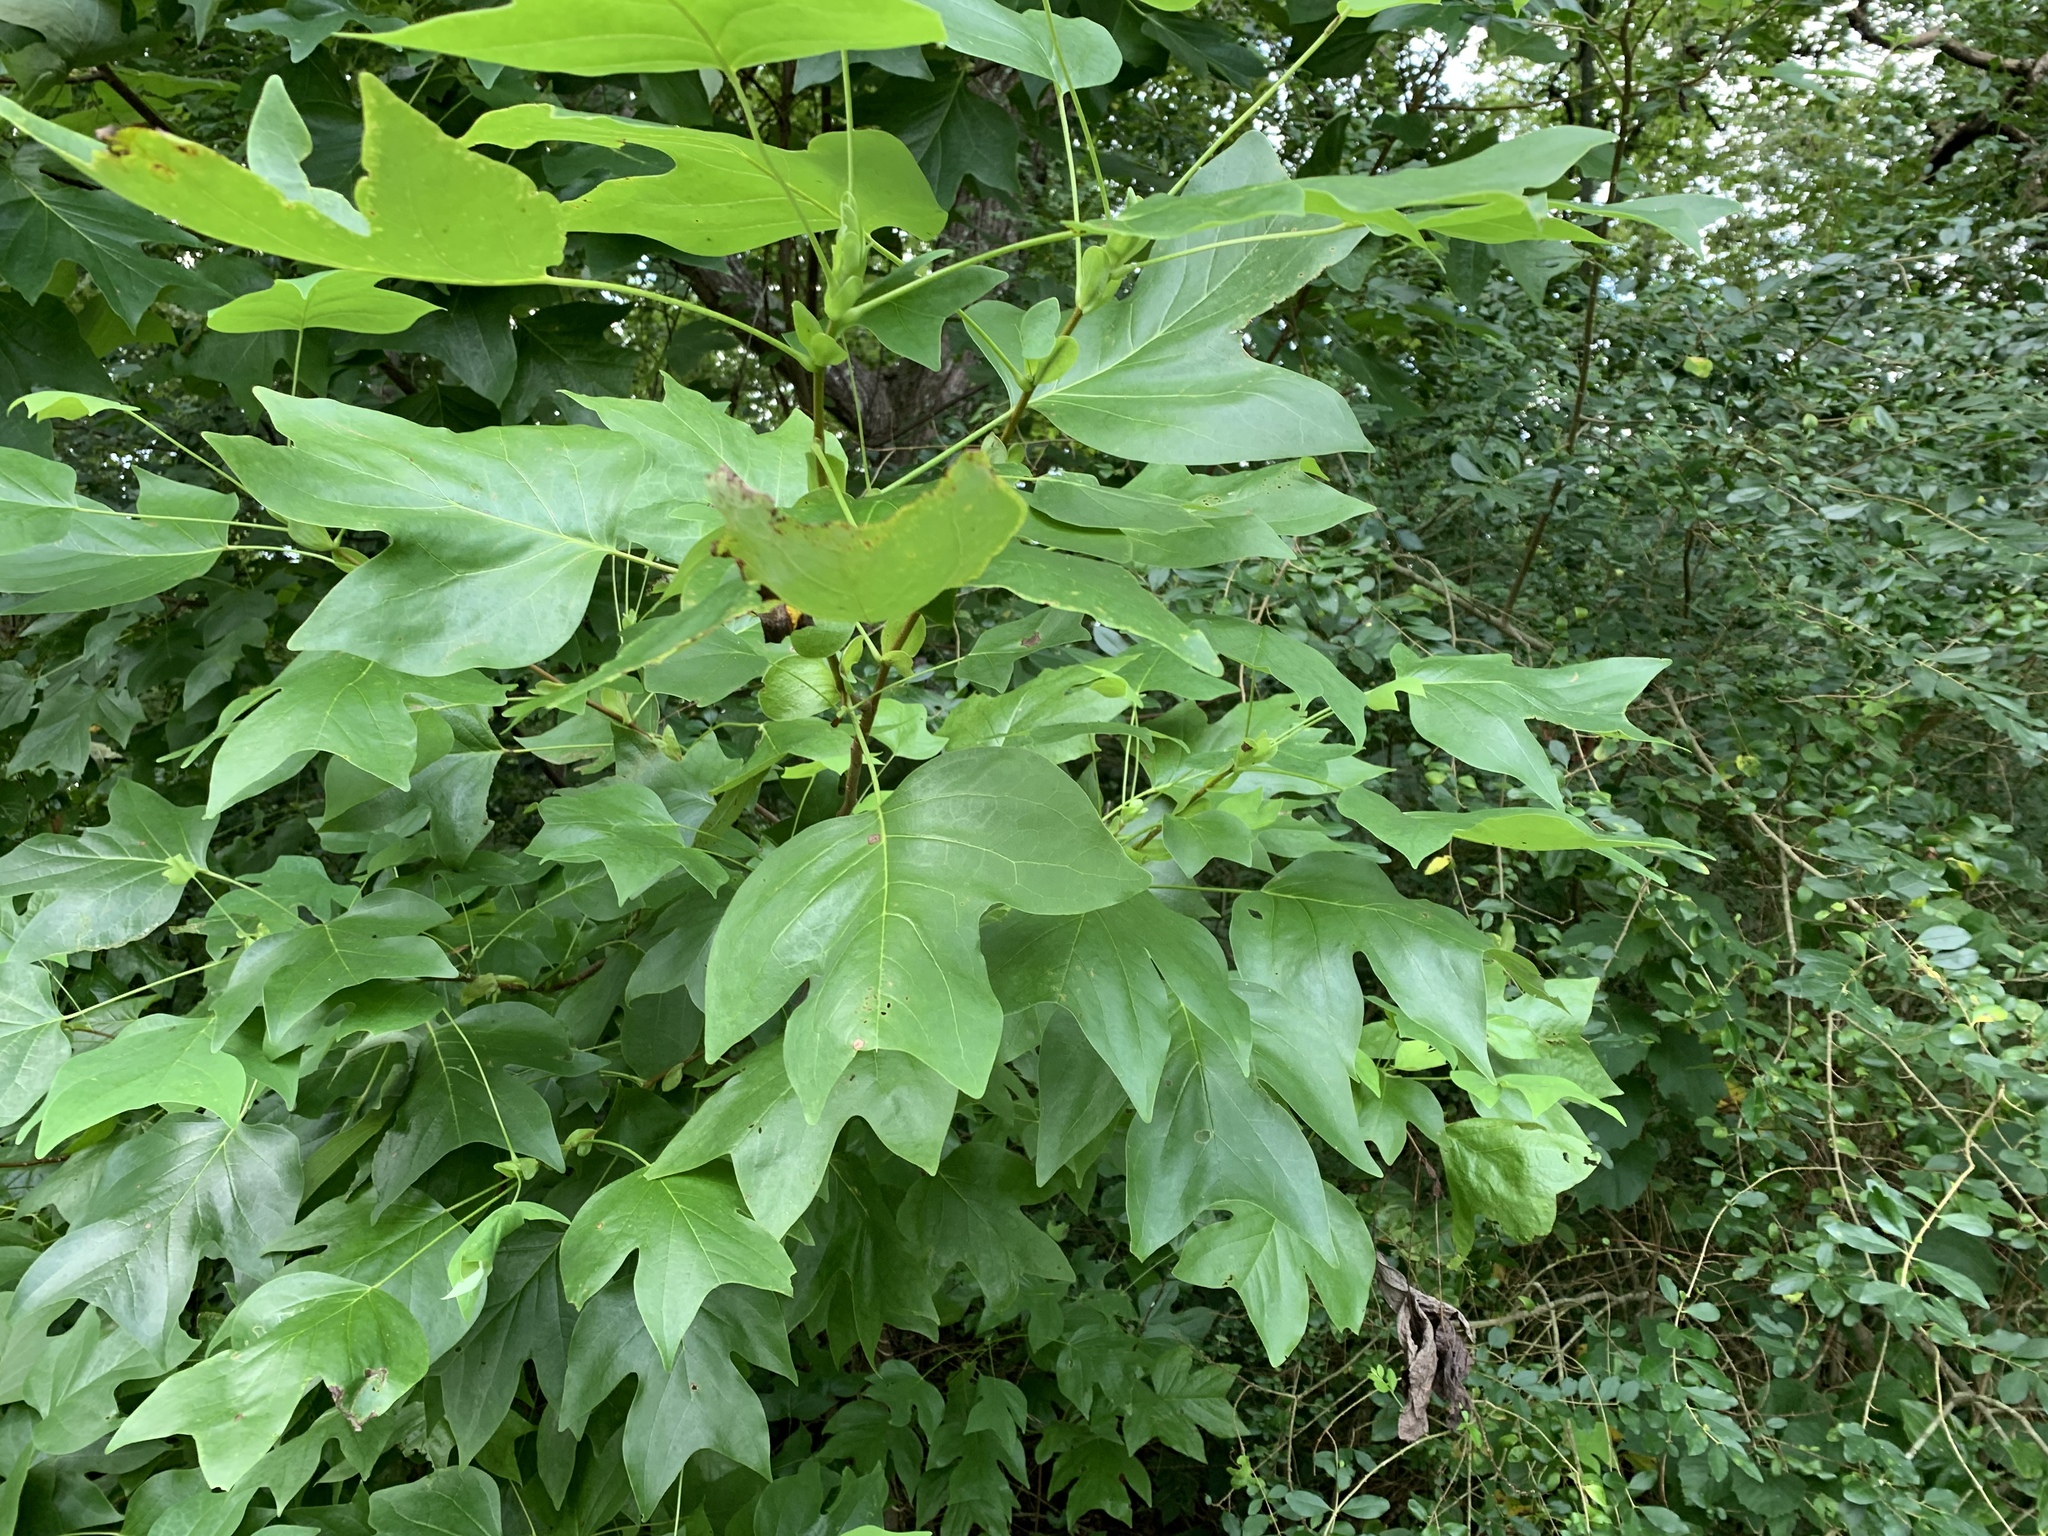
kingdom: Plantae
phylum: Tracheophyta
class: Magnoliopsida
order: Magnoliales
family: Magnoliaceae
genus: Liriodendron
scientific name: Liriodendron tulipifera
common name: Tulip tree
